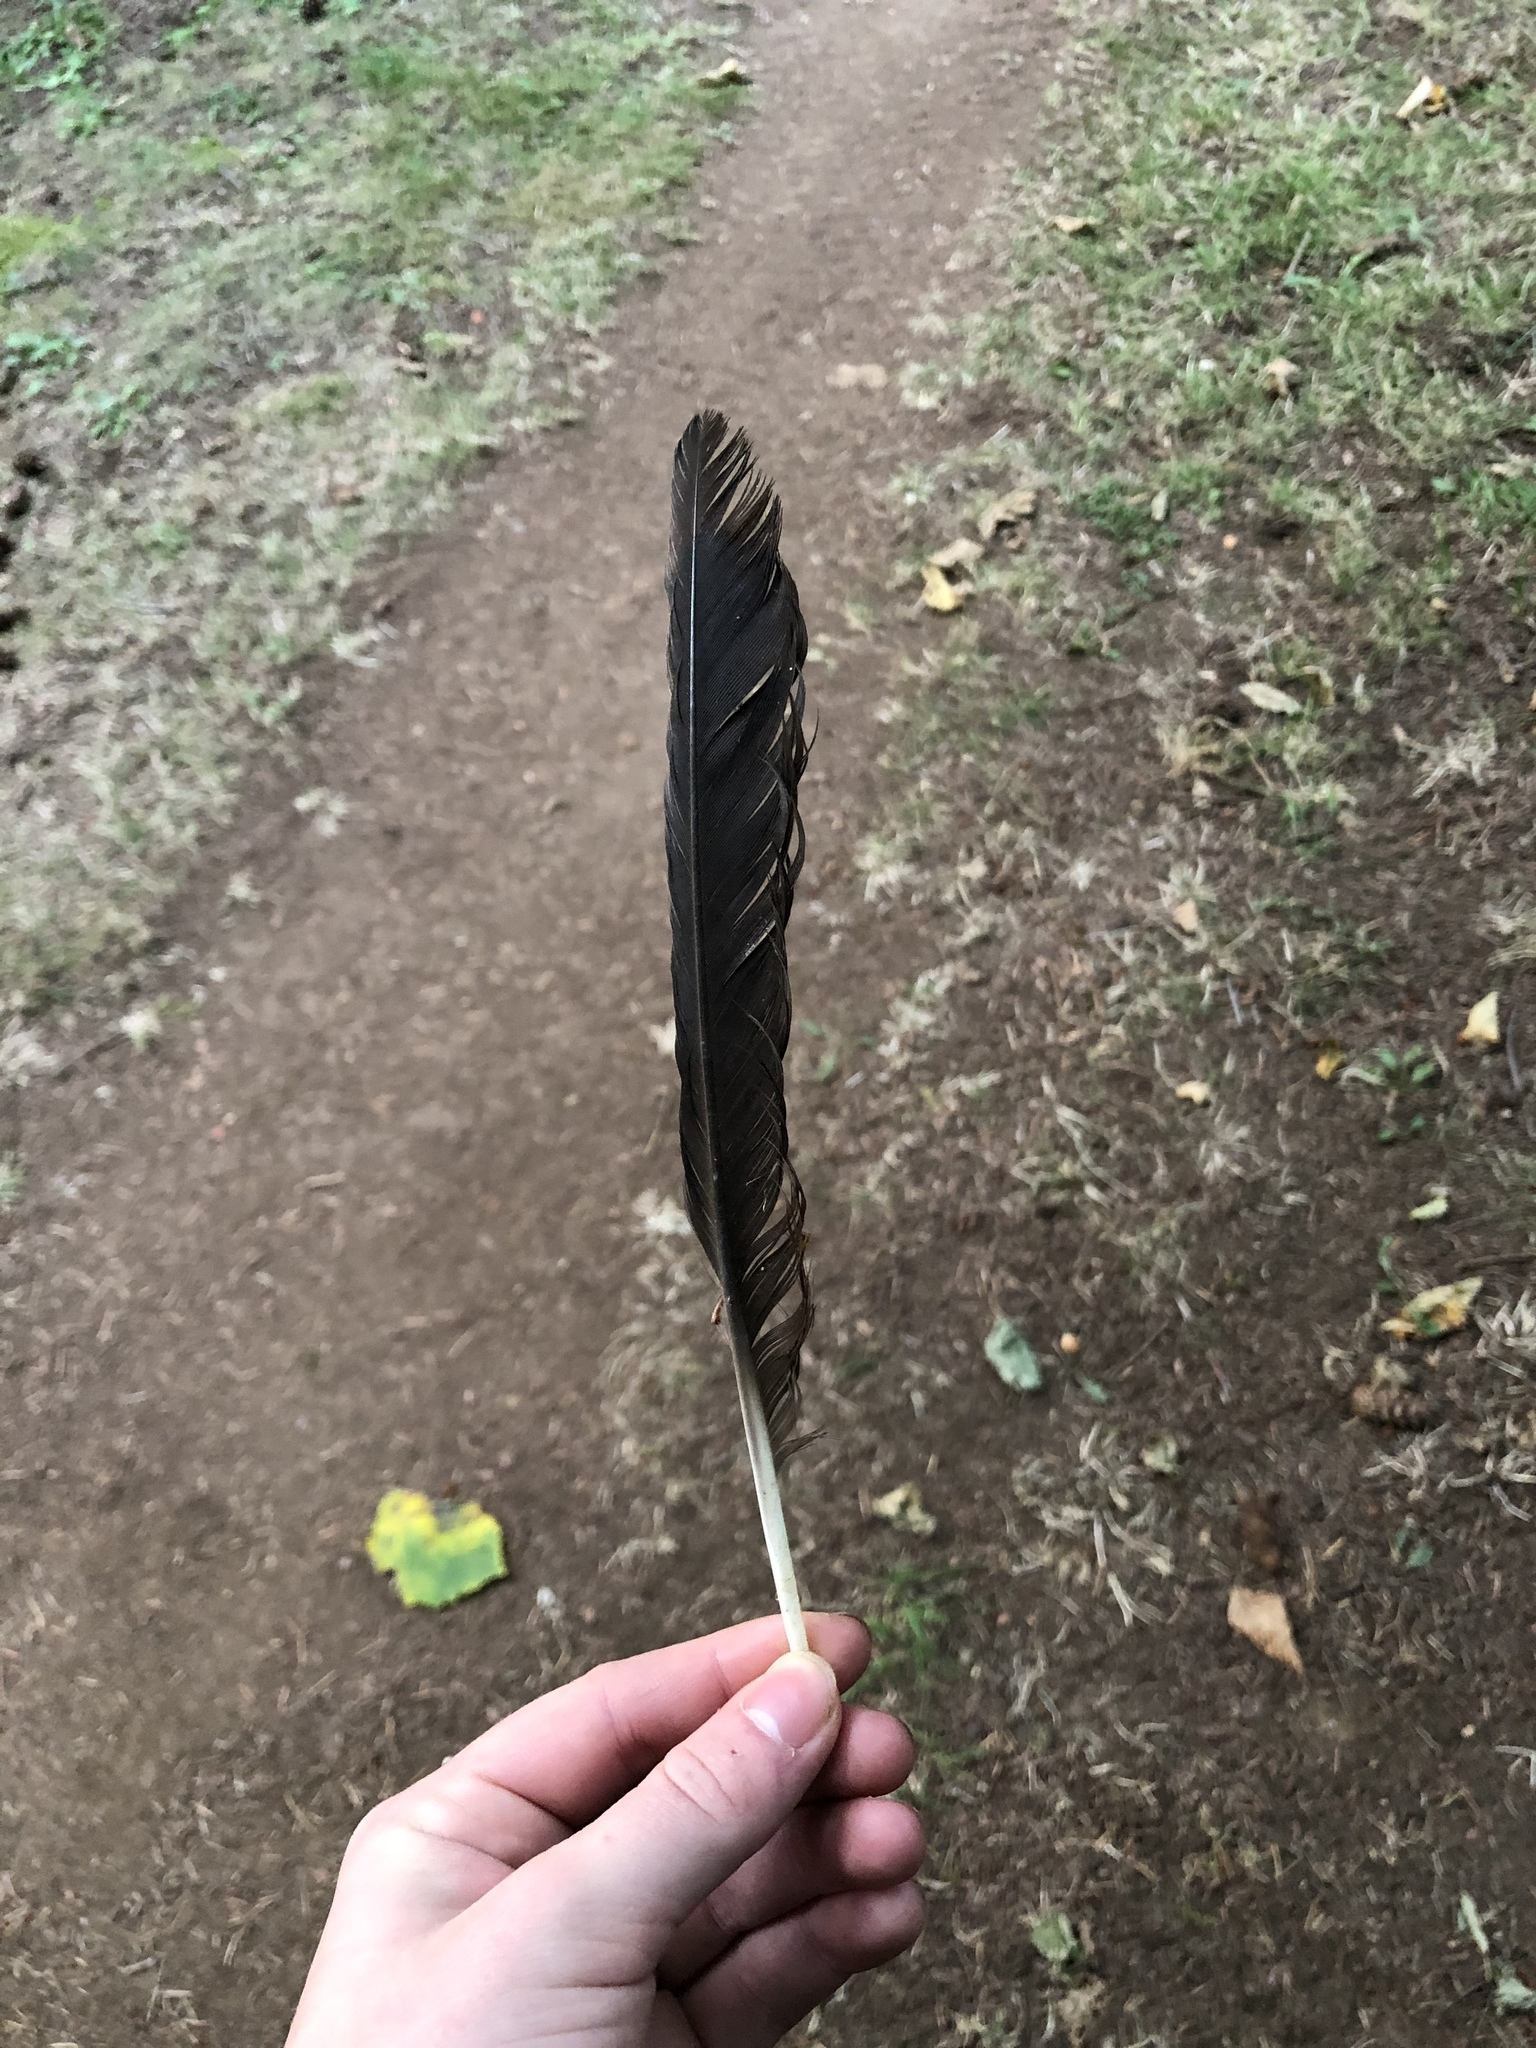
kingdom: Animalia
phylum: Chordata
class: Aves
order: Passeriformes
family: Corvidae
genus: Corvus
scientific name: Corvus brachyrhynchos
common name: American crow
